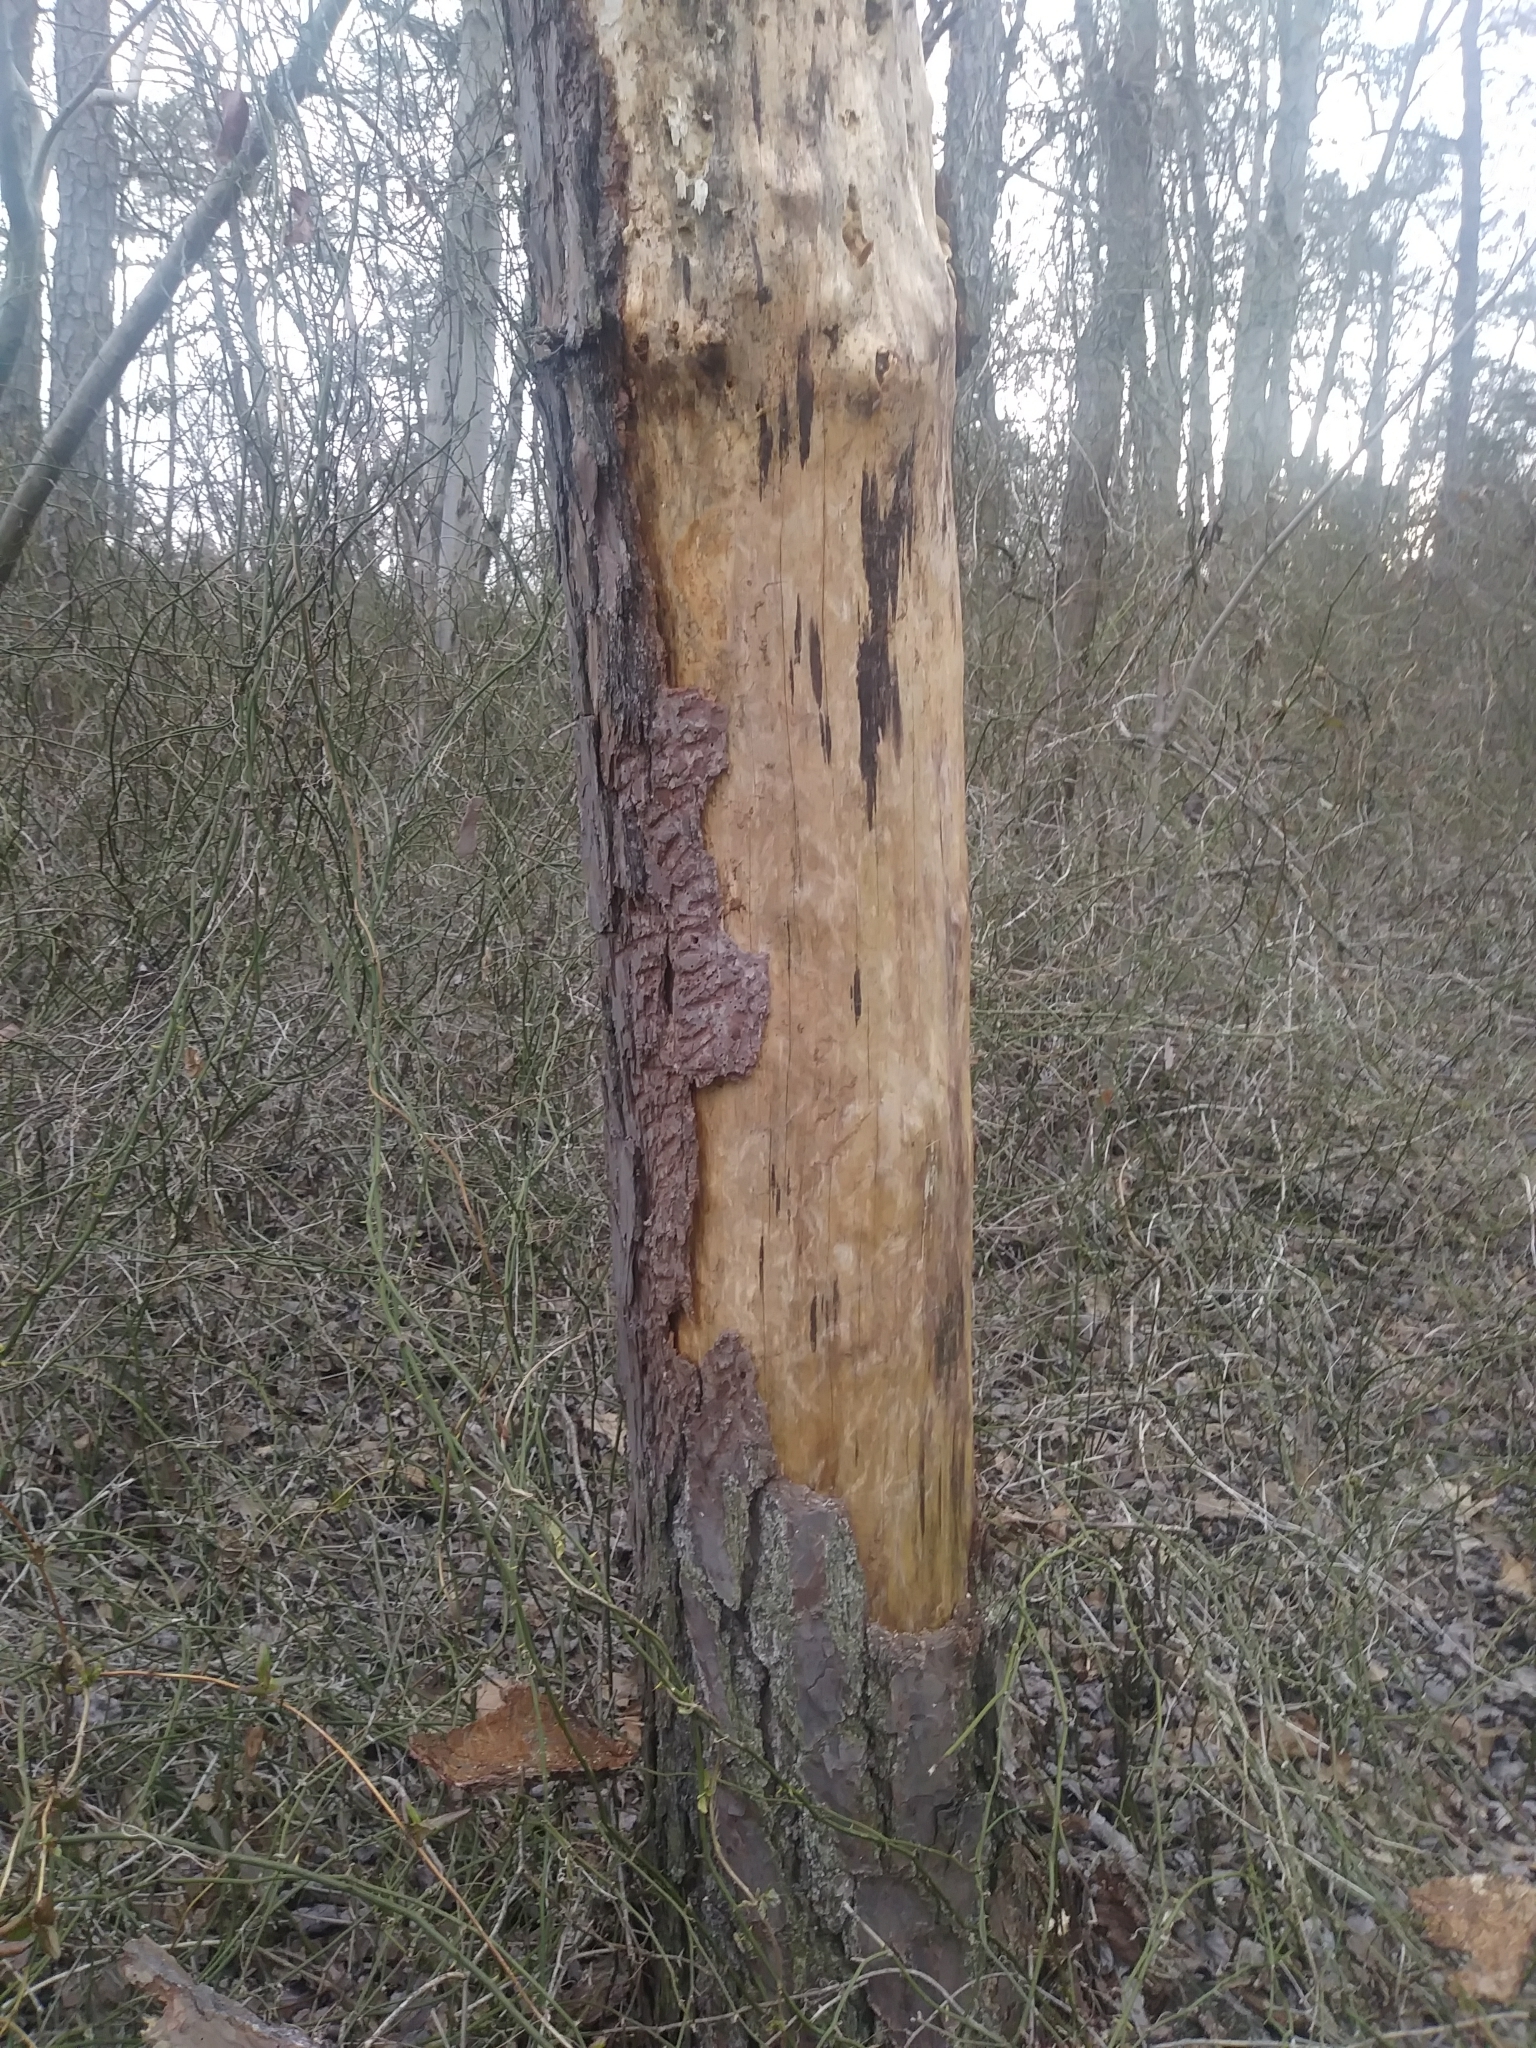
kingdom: Animalia
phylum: Arthropoda
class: Insecta
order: Coleoptera
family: Curculionidae
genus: Dendroctonus
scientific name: Dendroctonus frontalis
